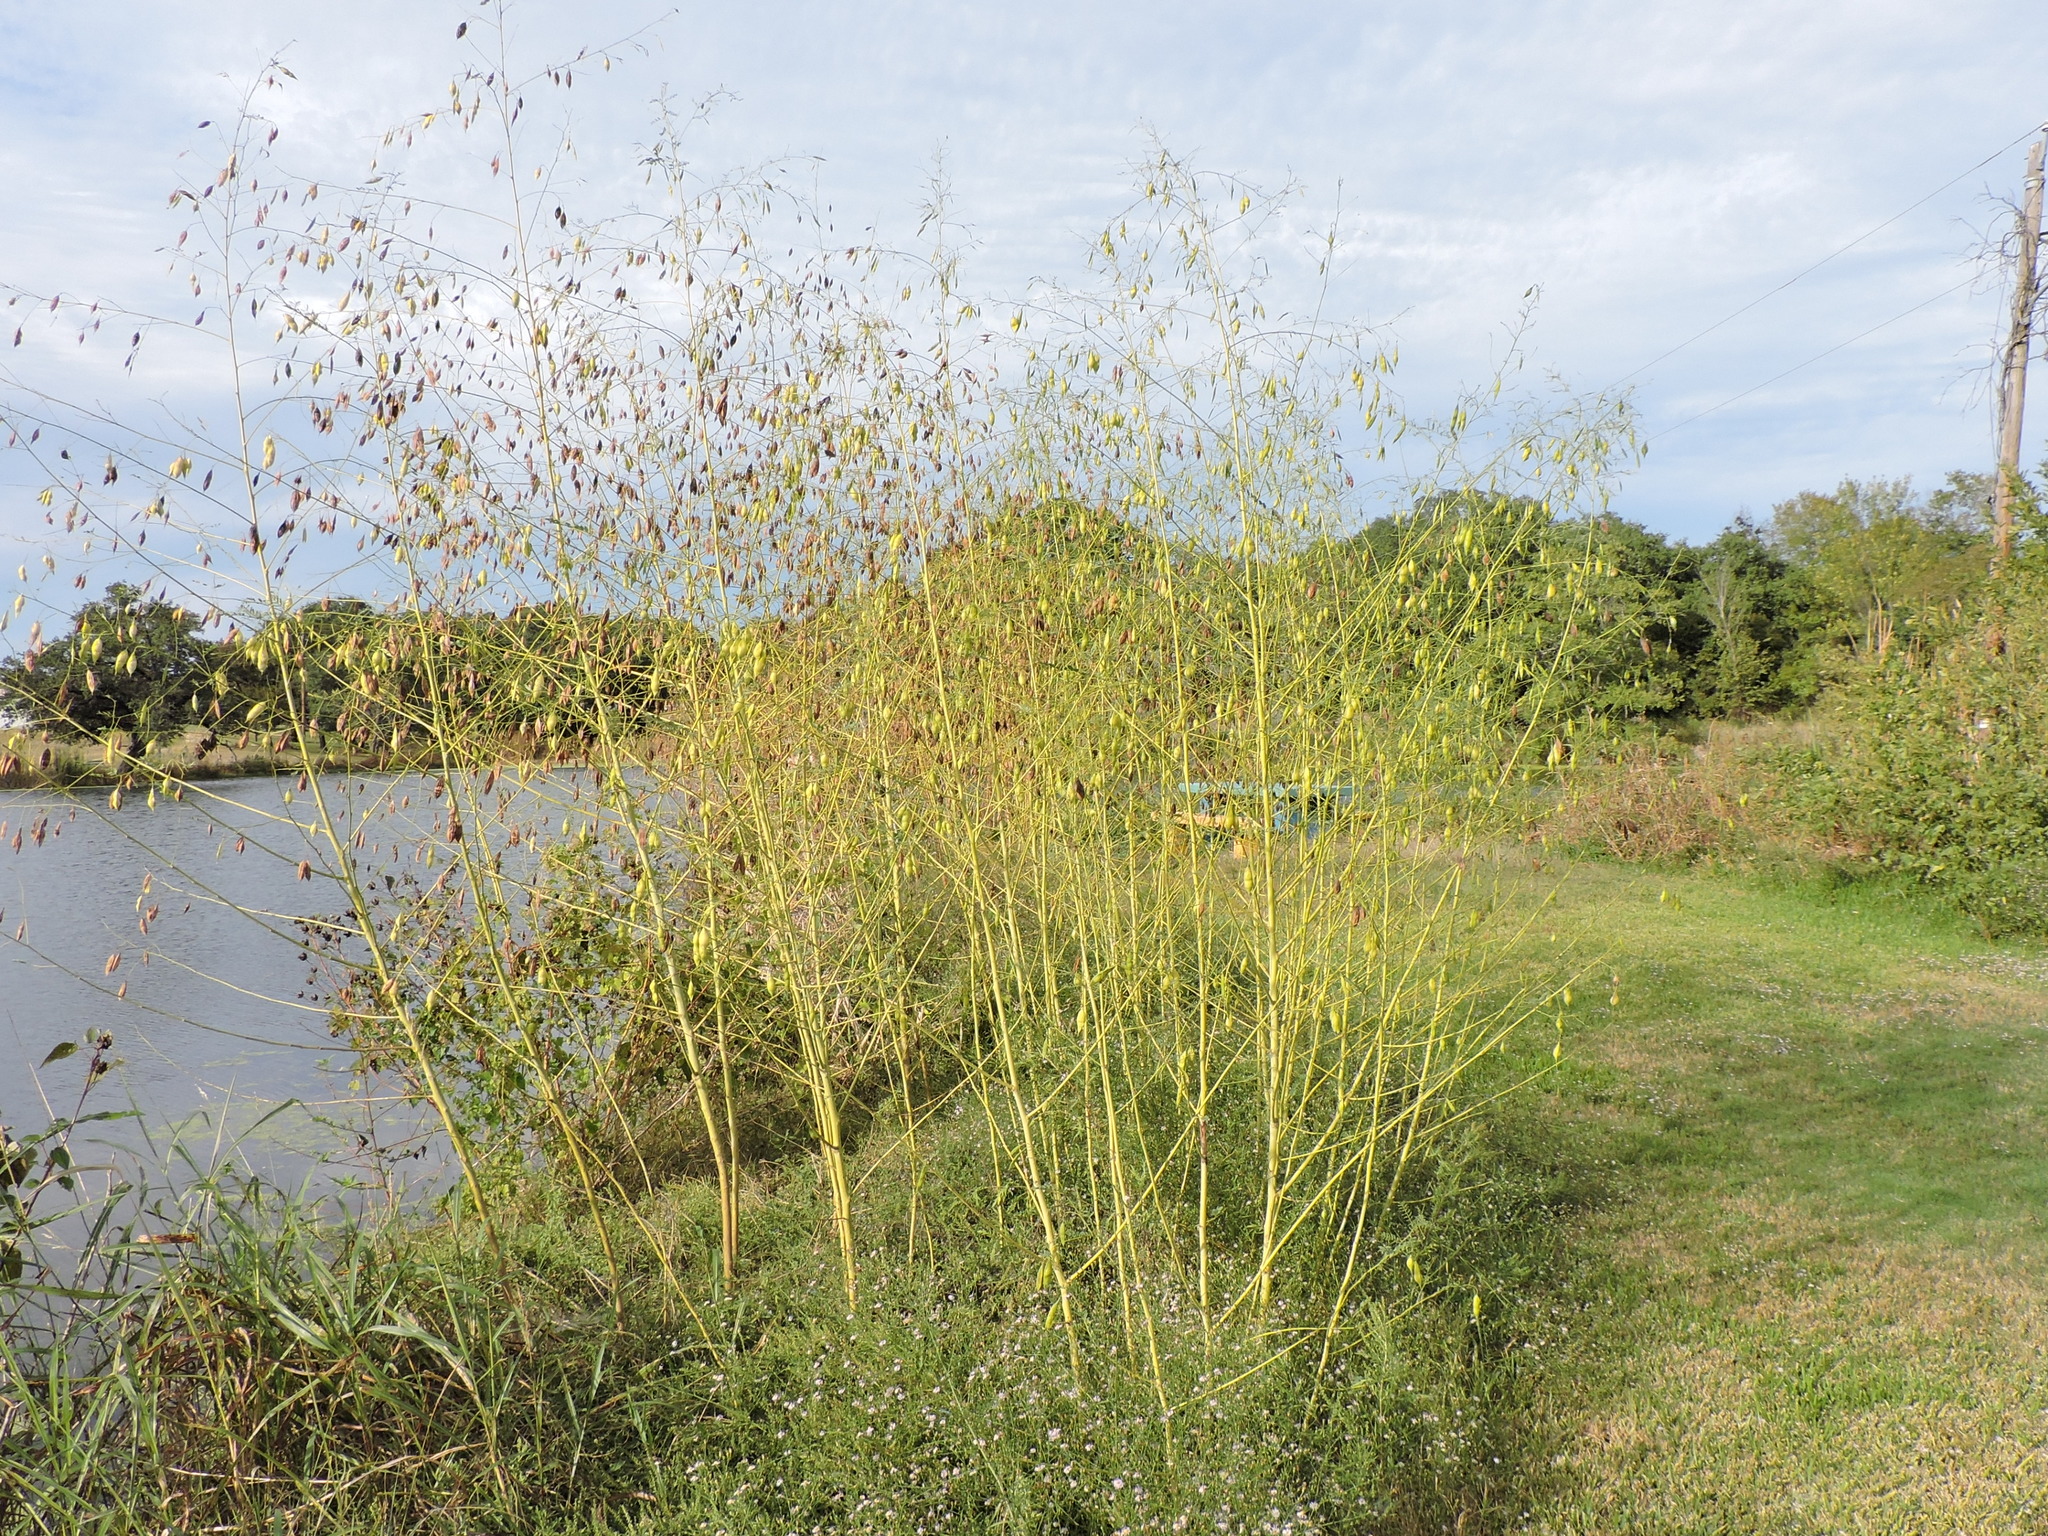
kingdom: Plantae
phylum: Tracheophyta
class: Magnoliopsida
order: Fabales
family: Fabaceae
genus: Sesbania
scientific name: Sesbania vesicaria
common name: Bagpod
